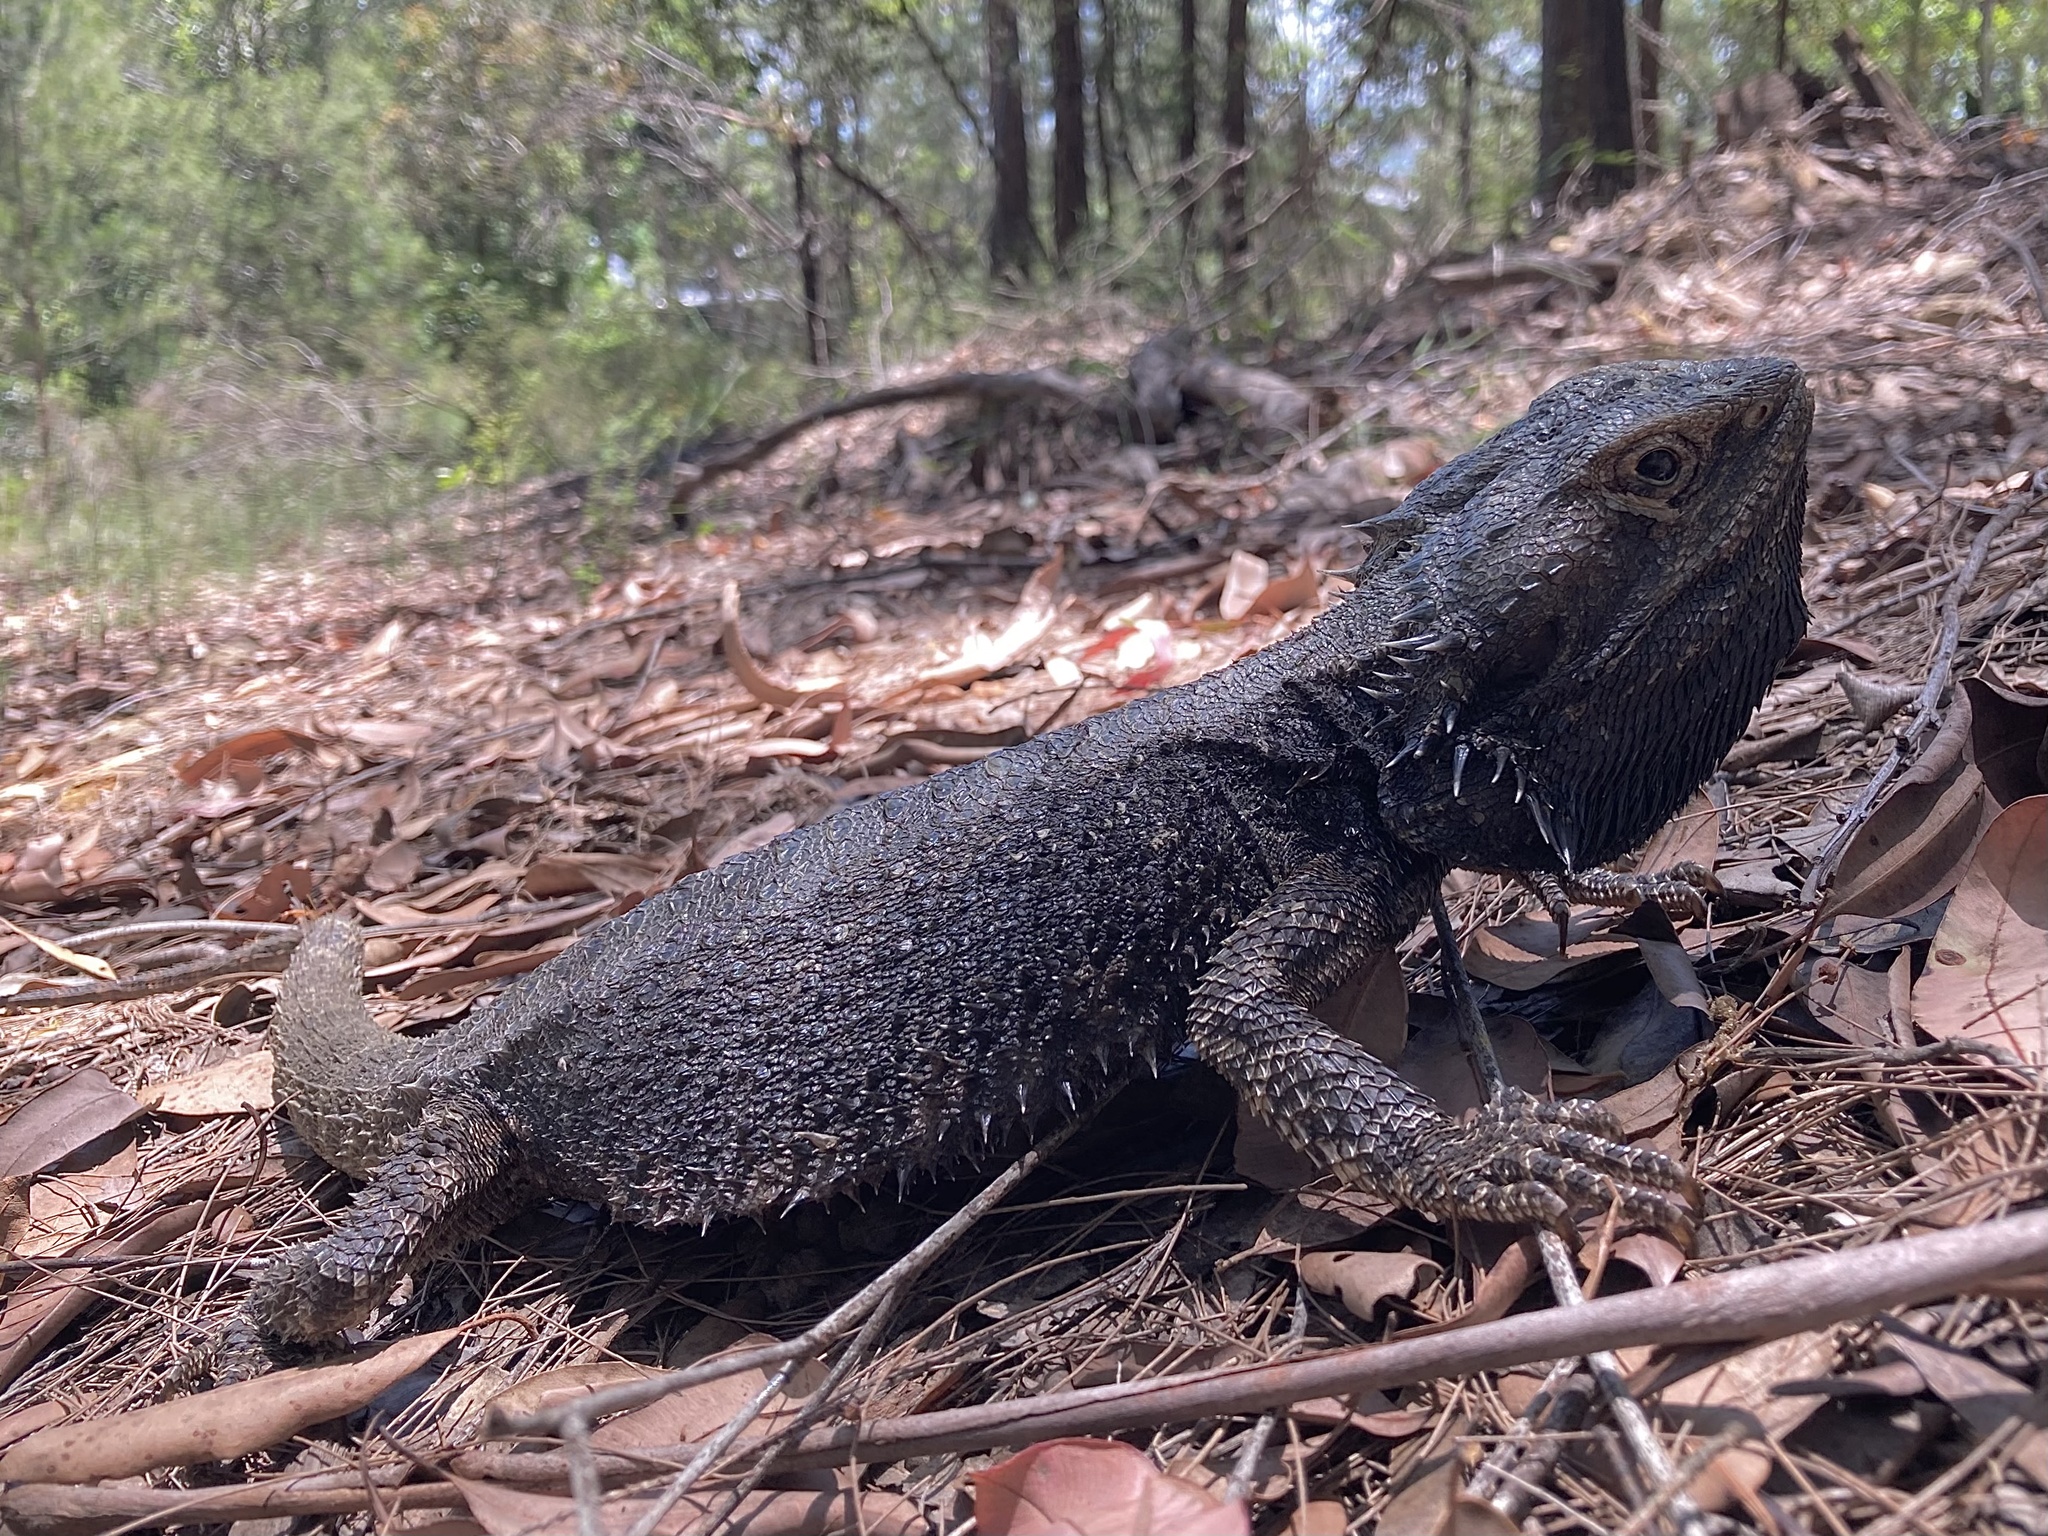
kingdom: Animalia
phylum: Chordata
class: Squamata
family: Agamidae
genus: Pogona
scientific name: Pogona barbata
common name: Bearded dragon
